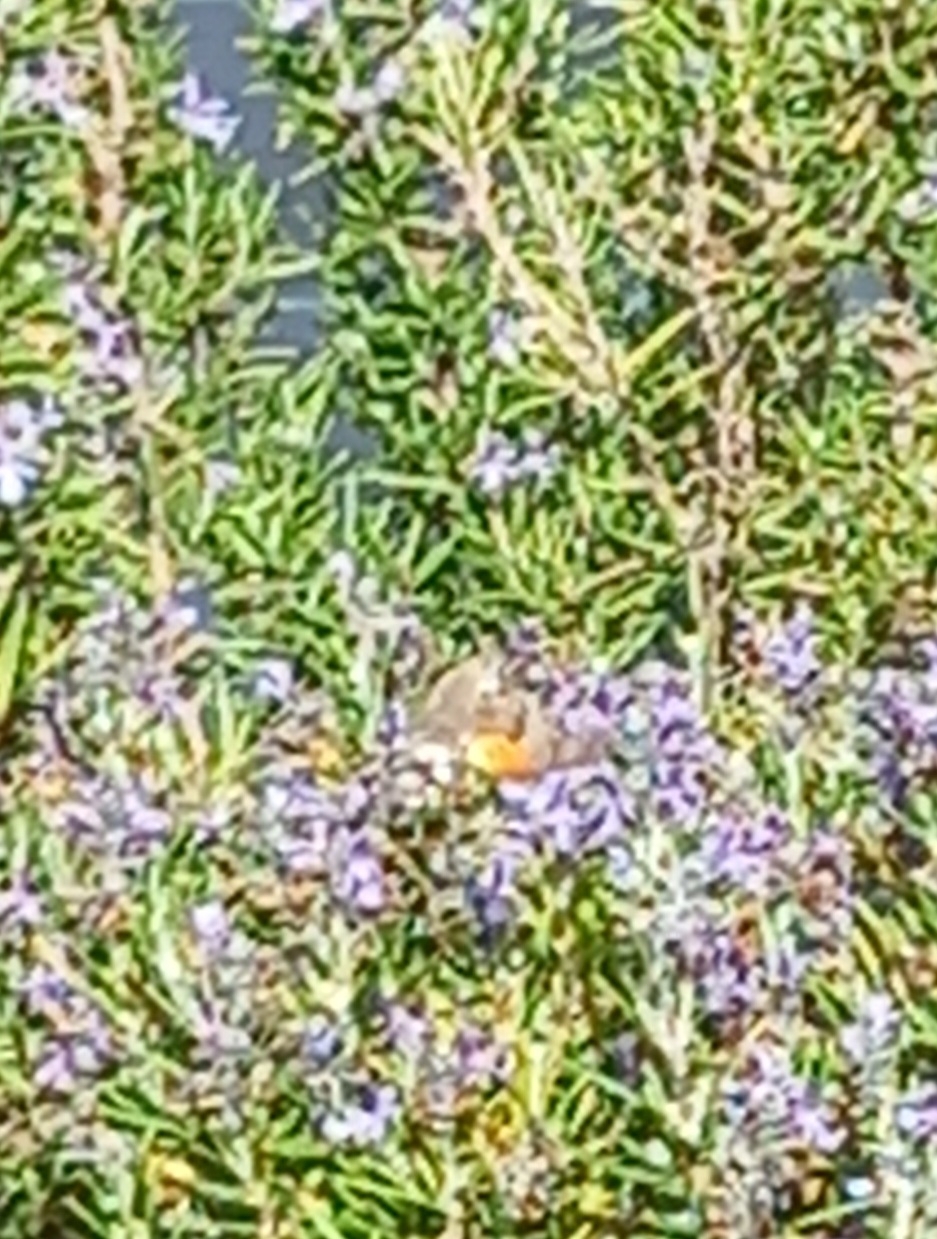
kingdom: Animalia
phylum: Arthropoda
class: Insecta
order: Lepidoptera
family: Sphingidae
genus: Macroglossum
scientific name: Macroglossum stellatarum
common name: Humming-bird hawk-moth
